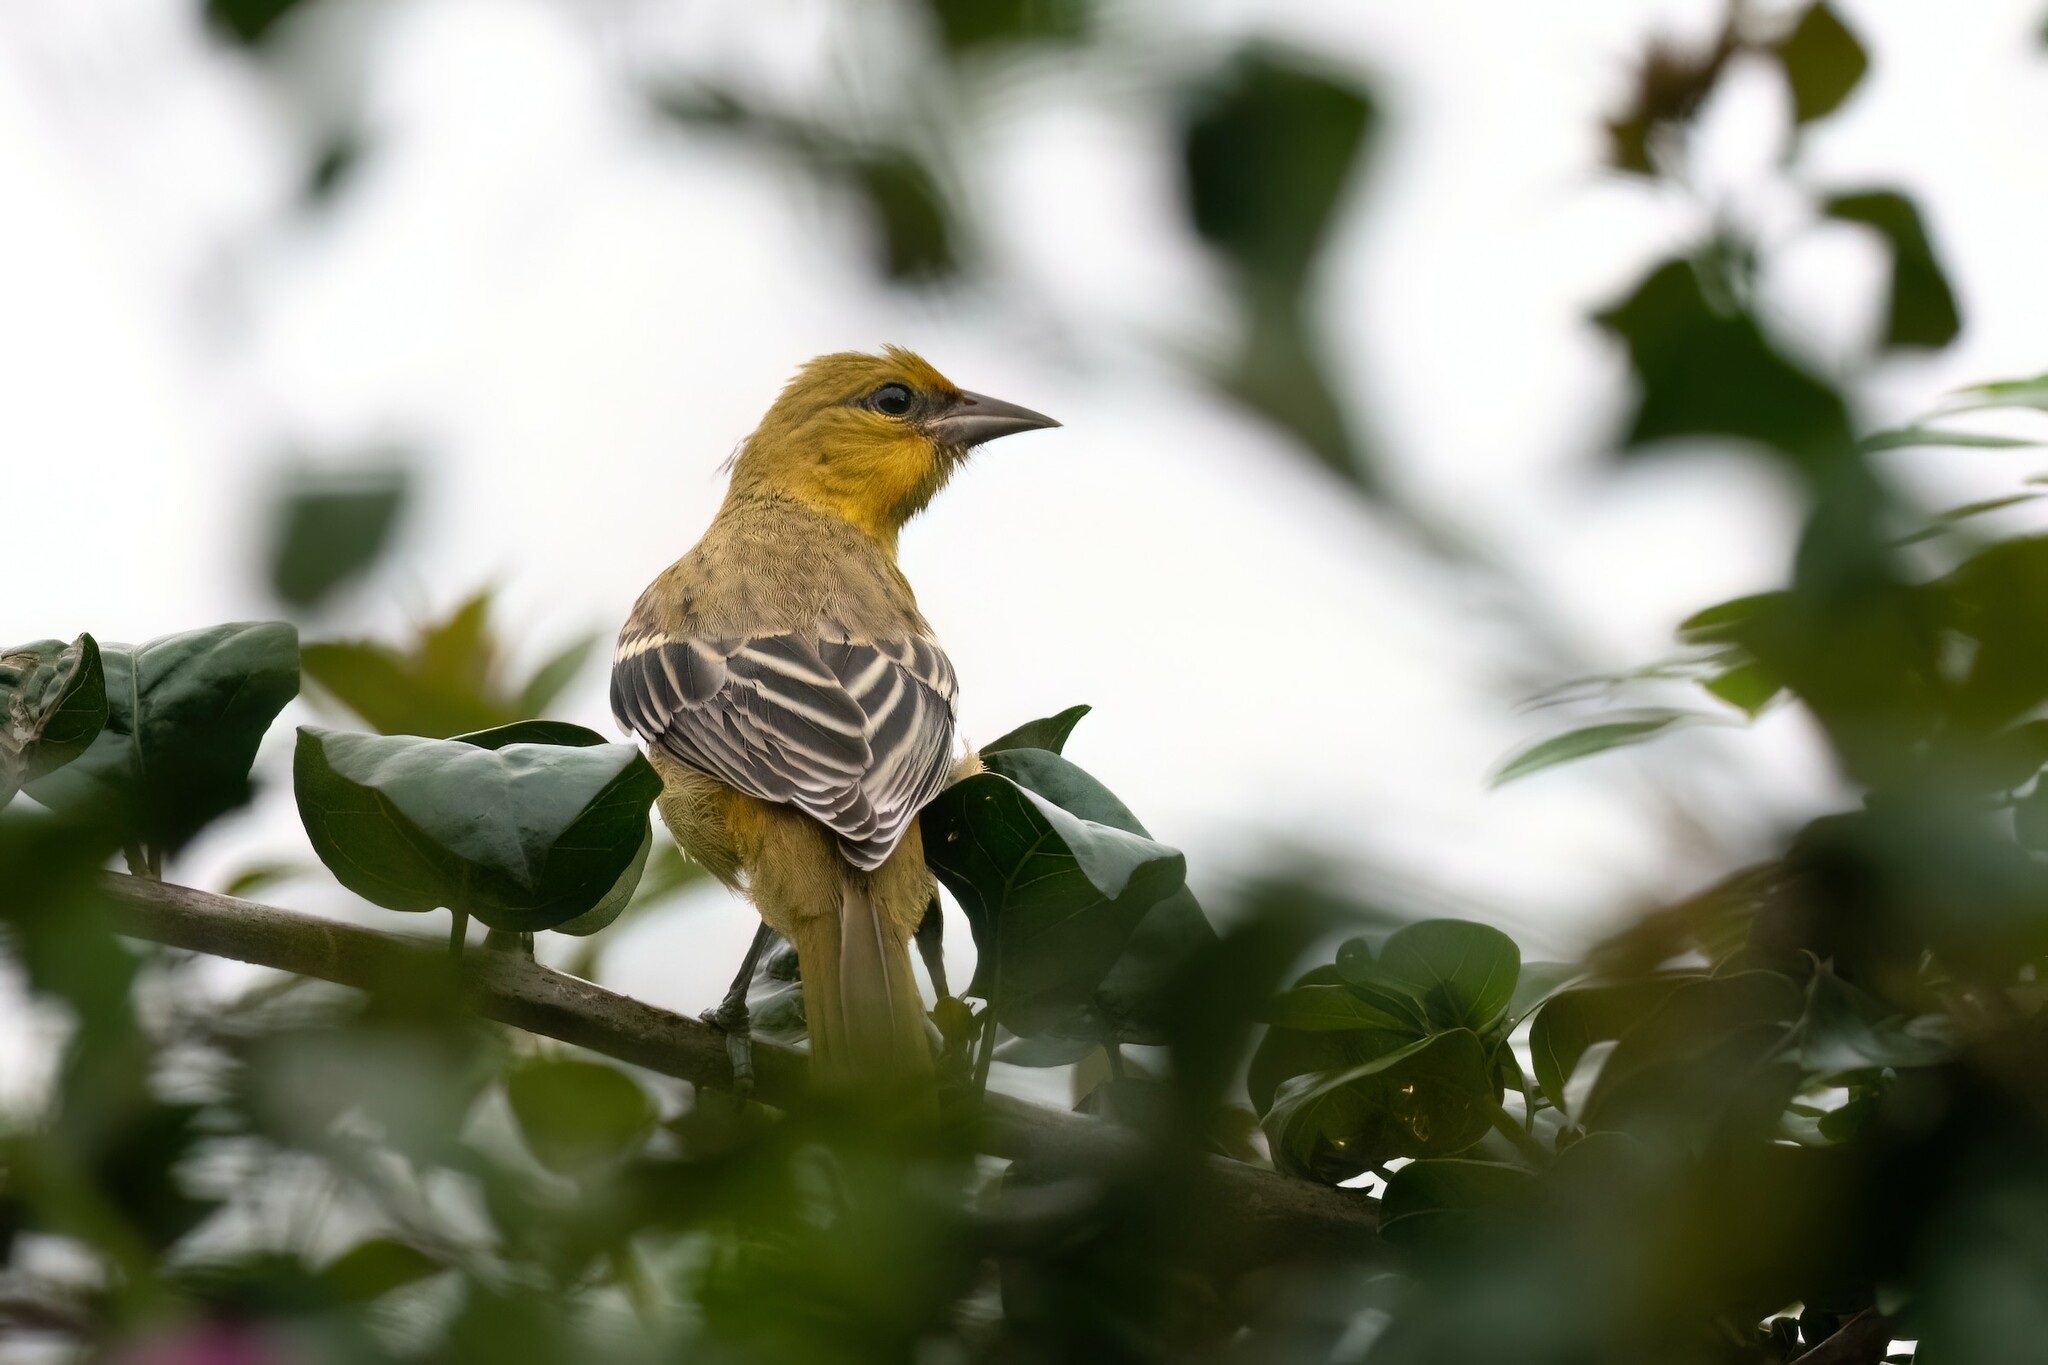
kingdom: Animalia
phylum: Chordata
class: Aves
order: Passeriformes
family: Icteridae
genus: Icterus
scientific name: Icterus pustulatus
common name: Streak-backed oriole
